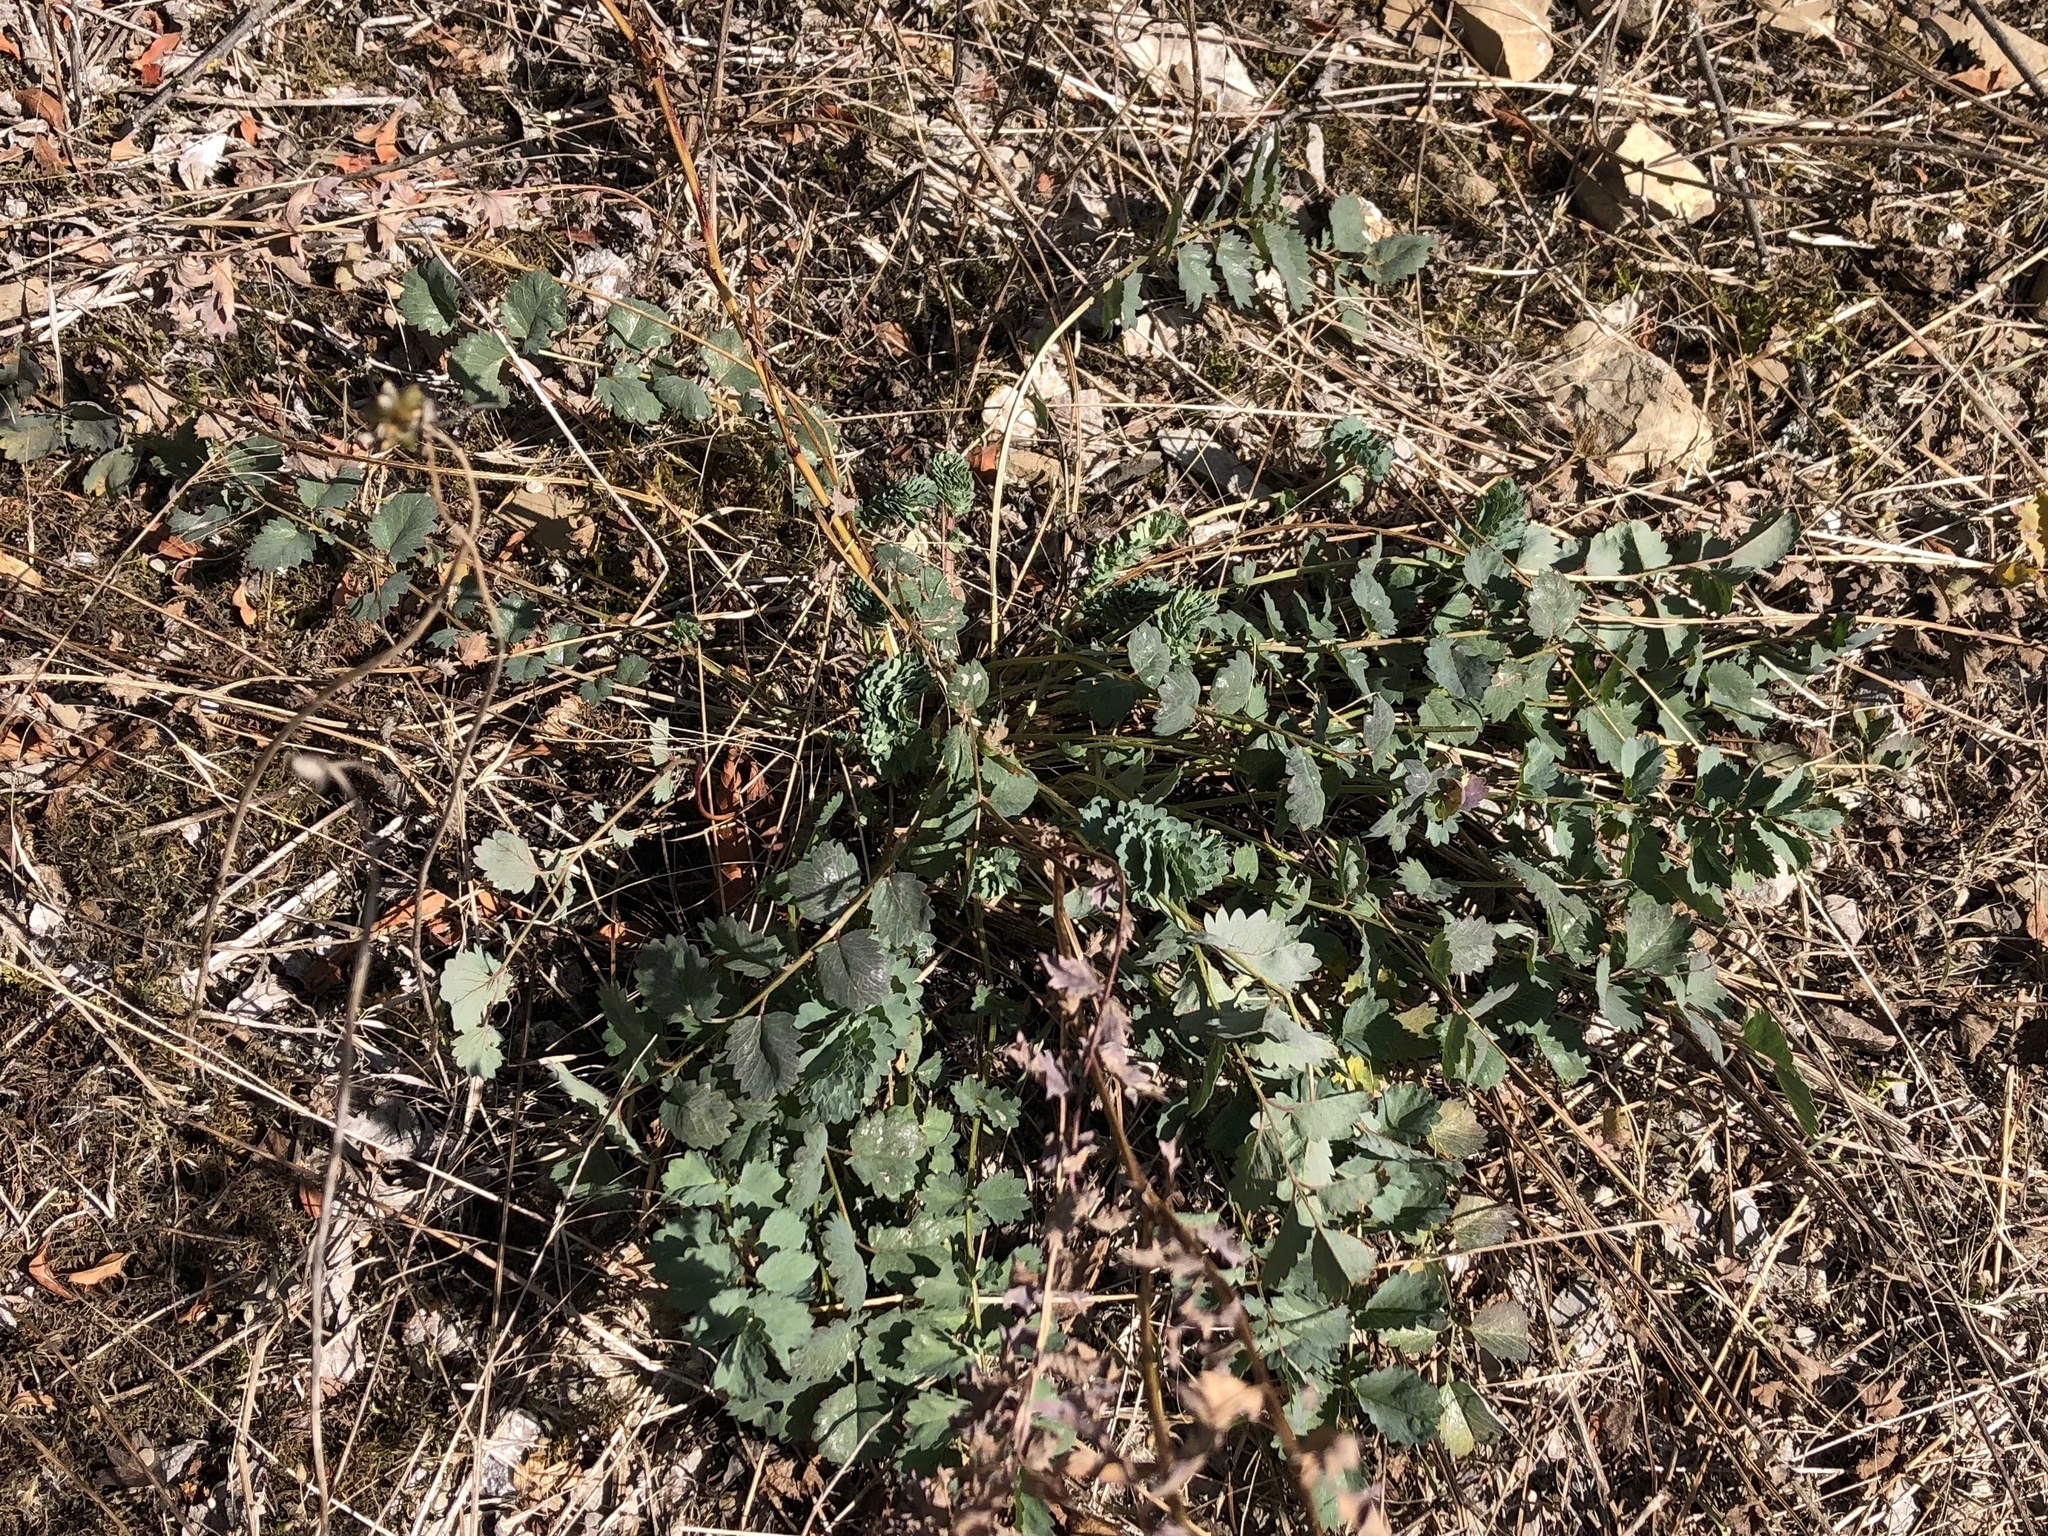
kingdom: Plantae
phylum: Tracheophyta
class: Magnoliopsida
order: Rosales
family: Rosaceae
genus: Poterium
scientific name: Poterium sanguisorba
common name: Salad burnet
